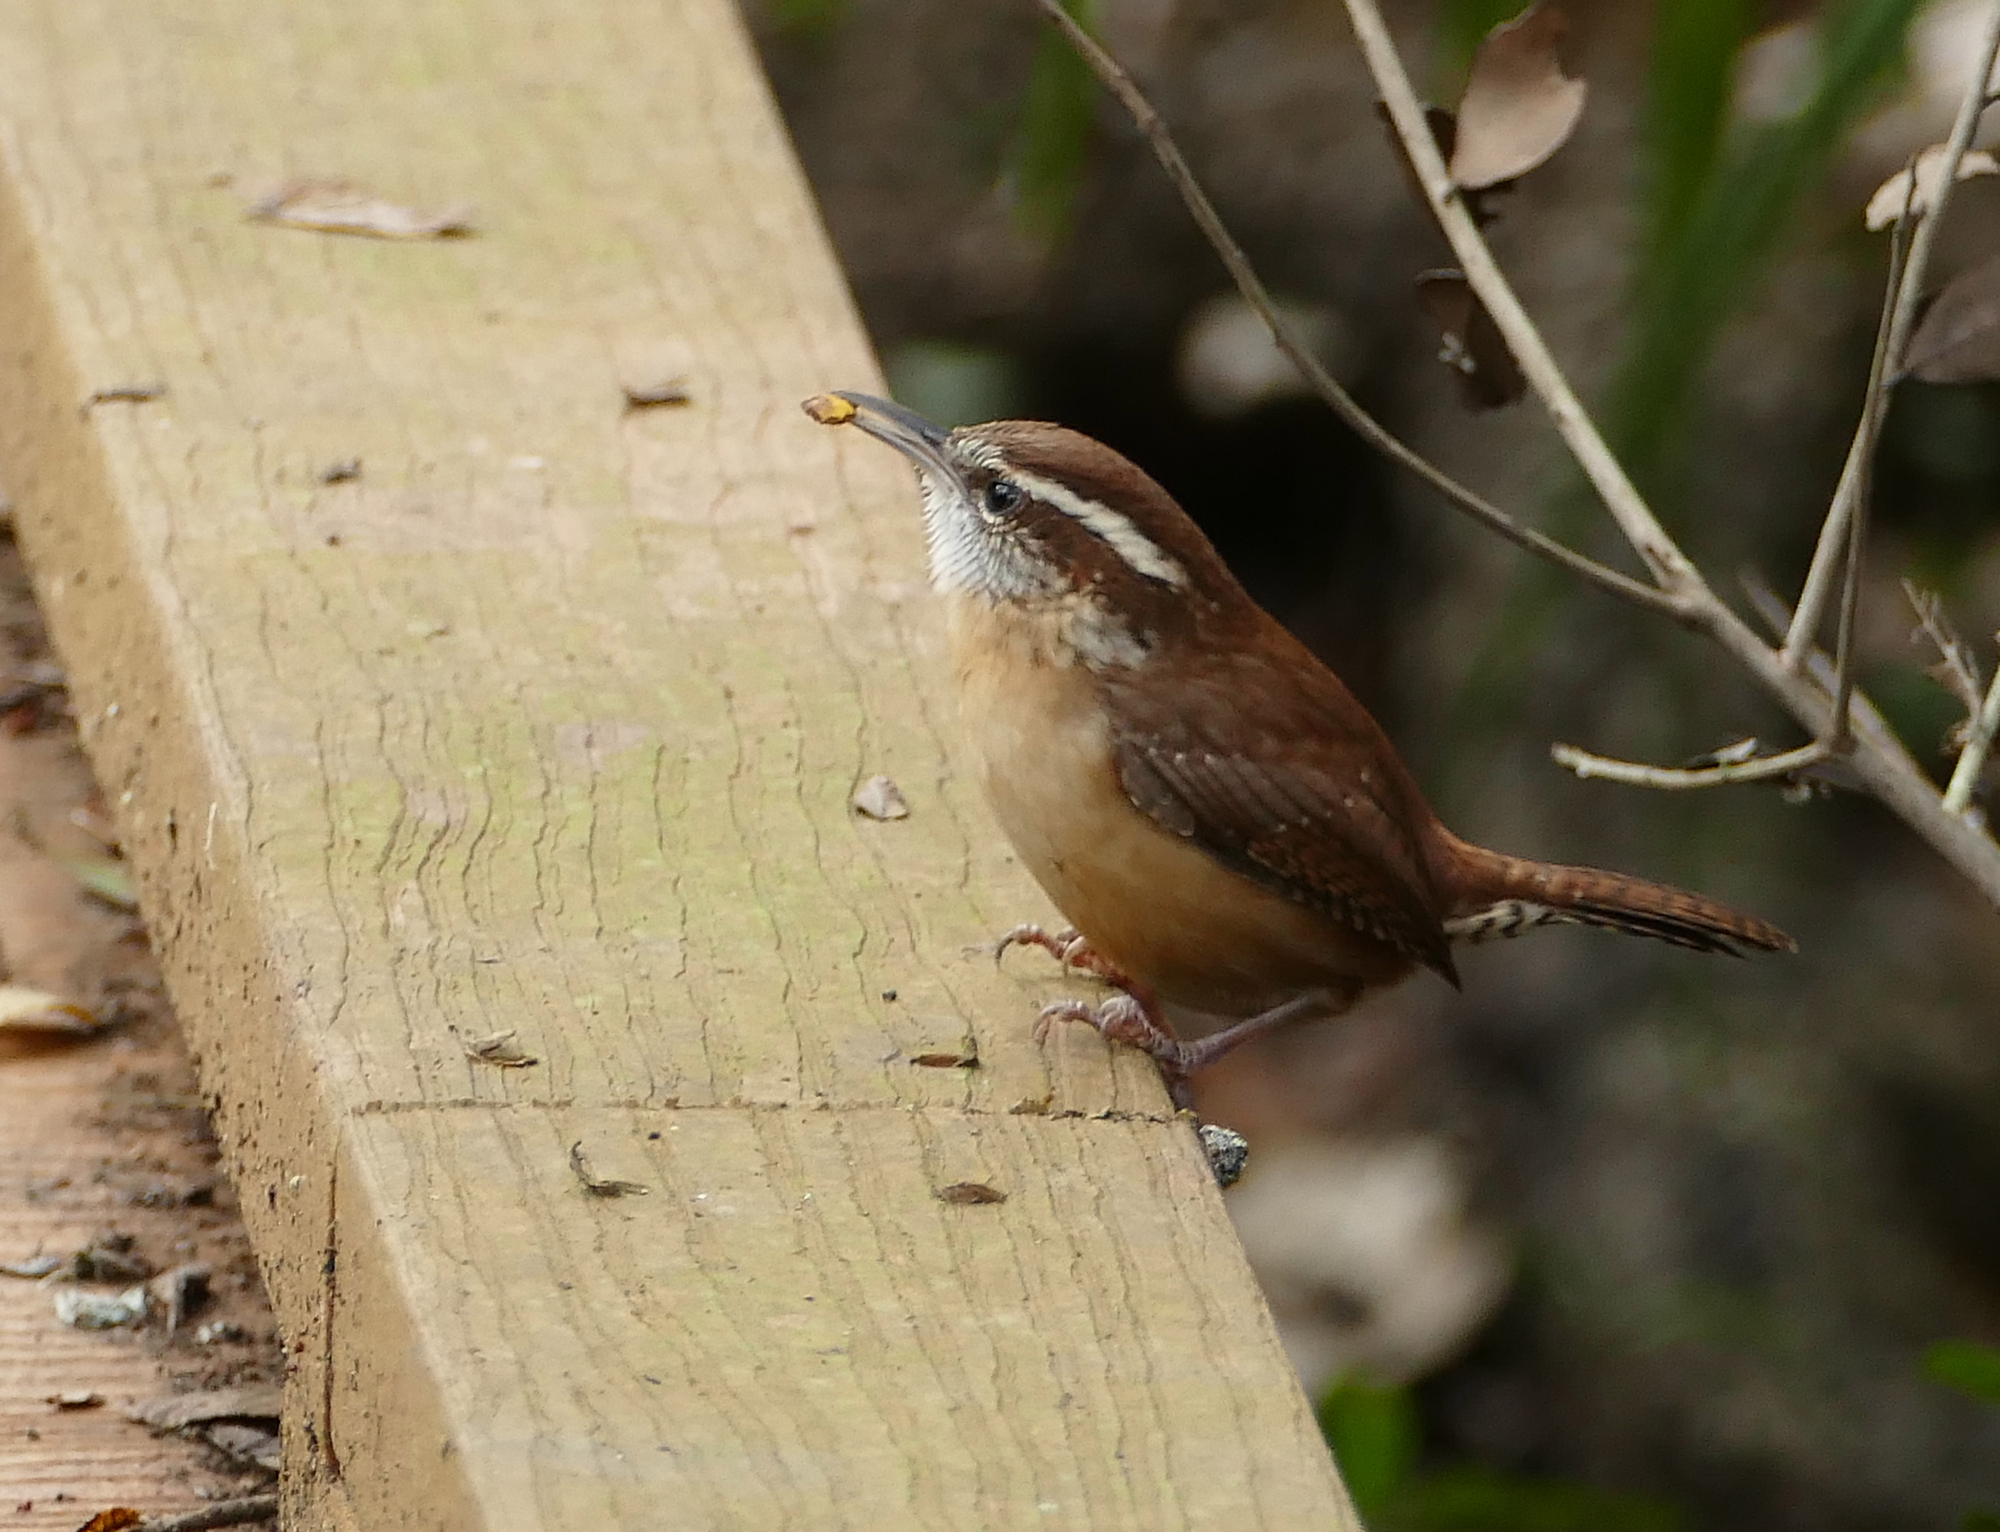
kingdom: Animalia
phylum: Chordata
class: Aves
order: Passeriformes
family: Troglodytidae
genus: Thryothorus
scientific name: Thryothorus ludovicianus
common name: Carolina wren
